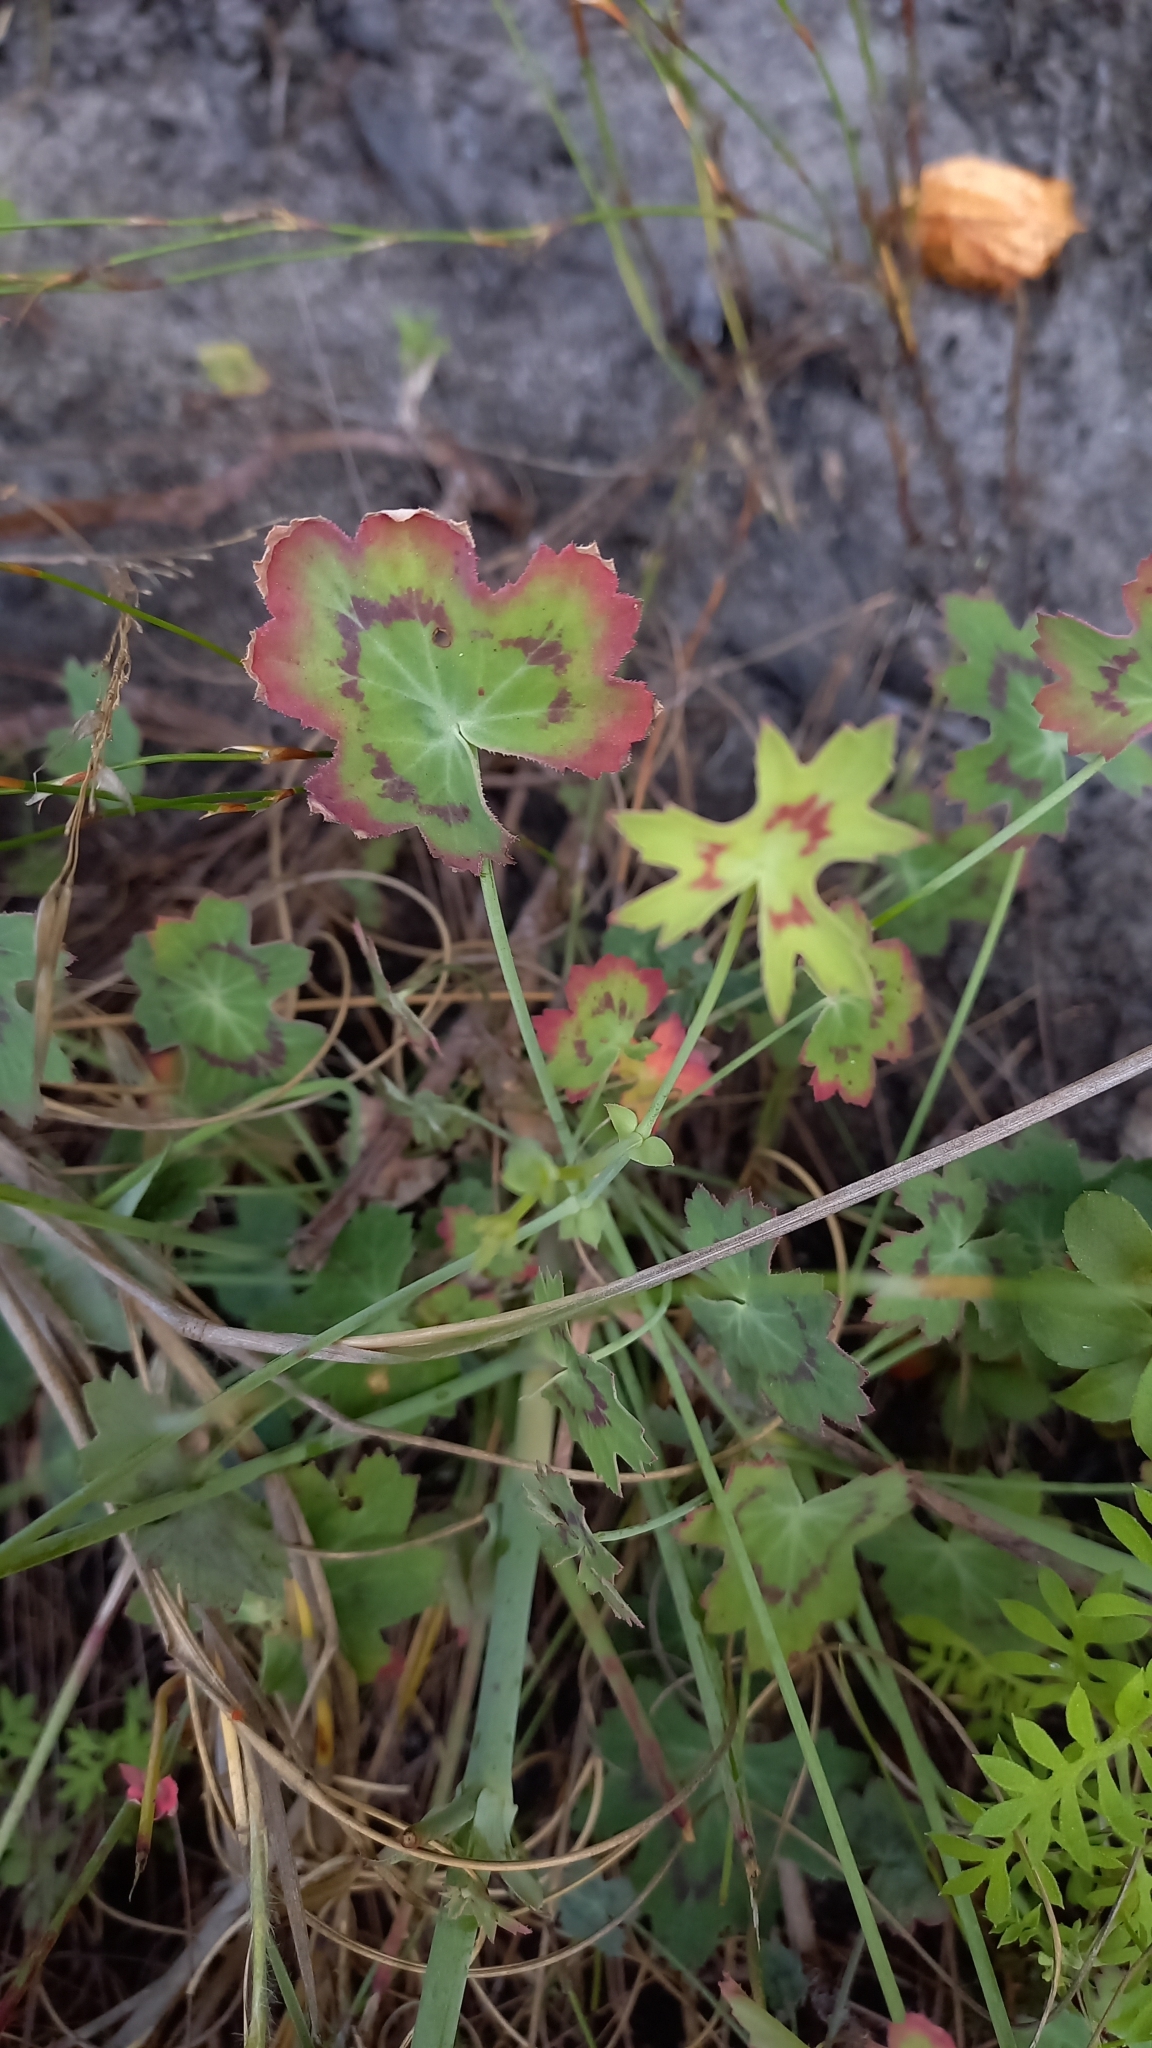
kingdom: Plantae
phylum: Tracheophyta
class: Magnoliopsida
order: Geraniales
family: Geraniaceae
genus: Pelargonium
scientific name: Pelargonium grandiflorum
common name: Large-flower pelargonium
